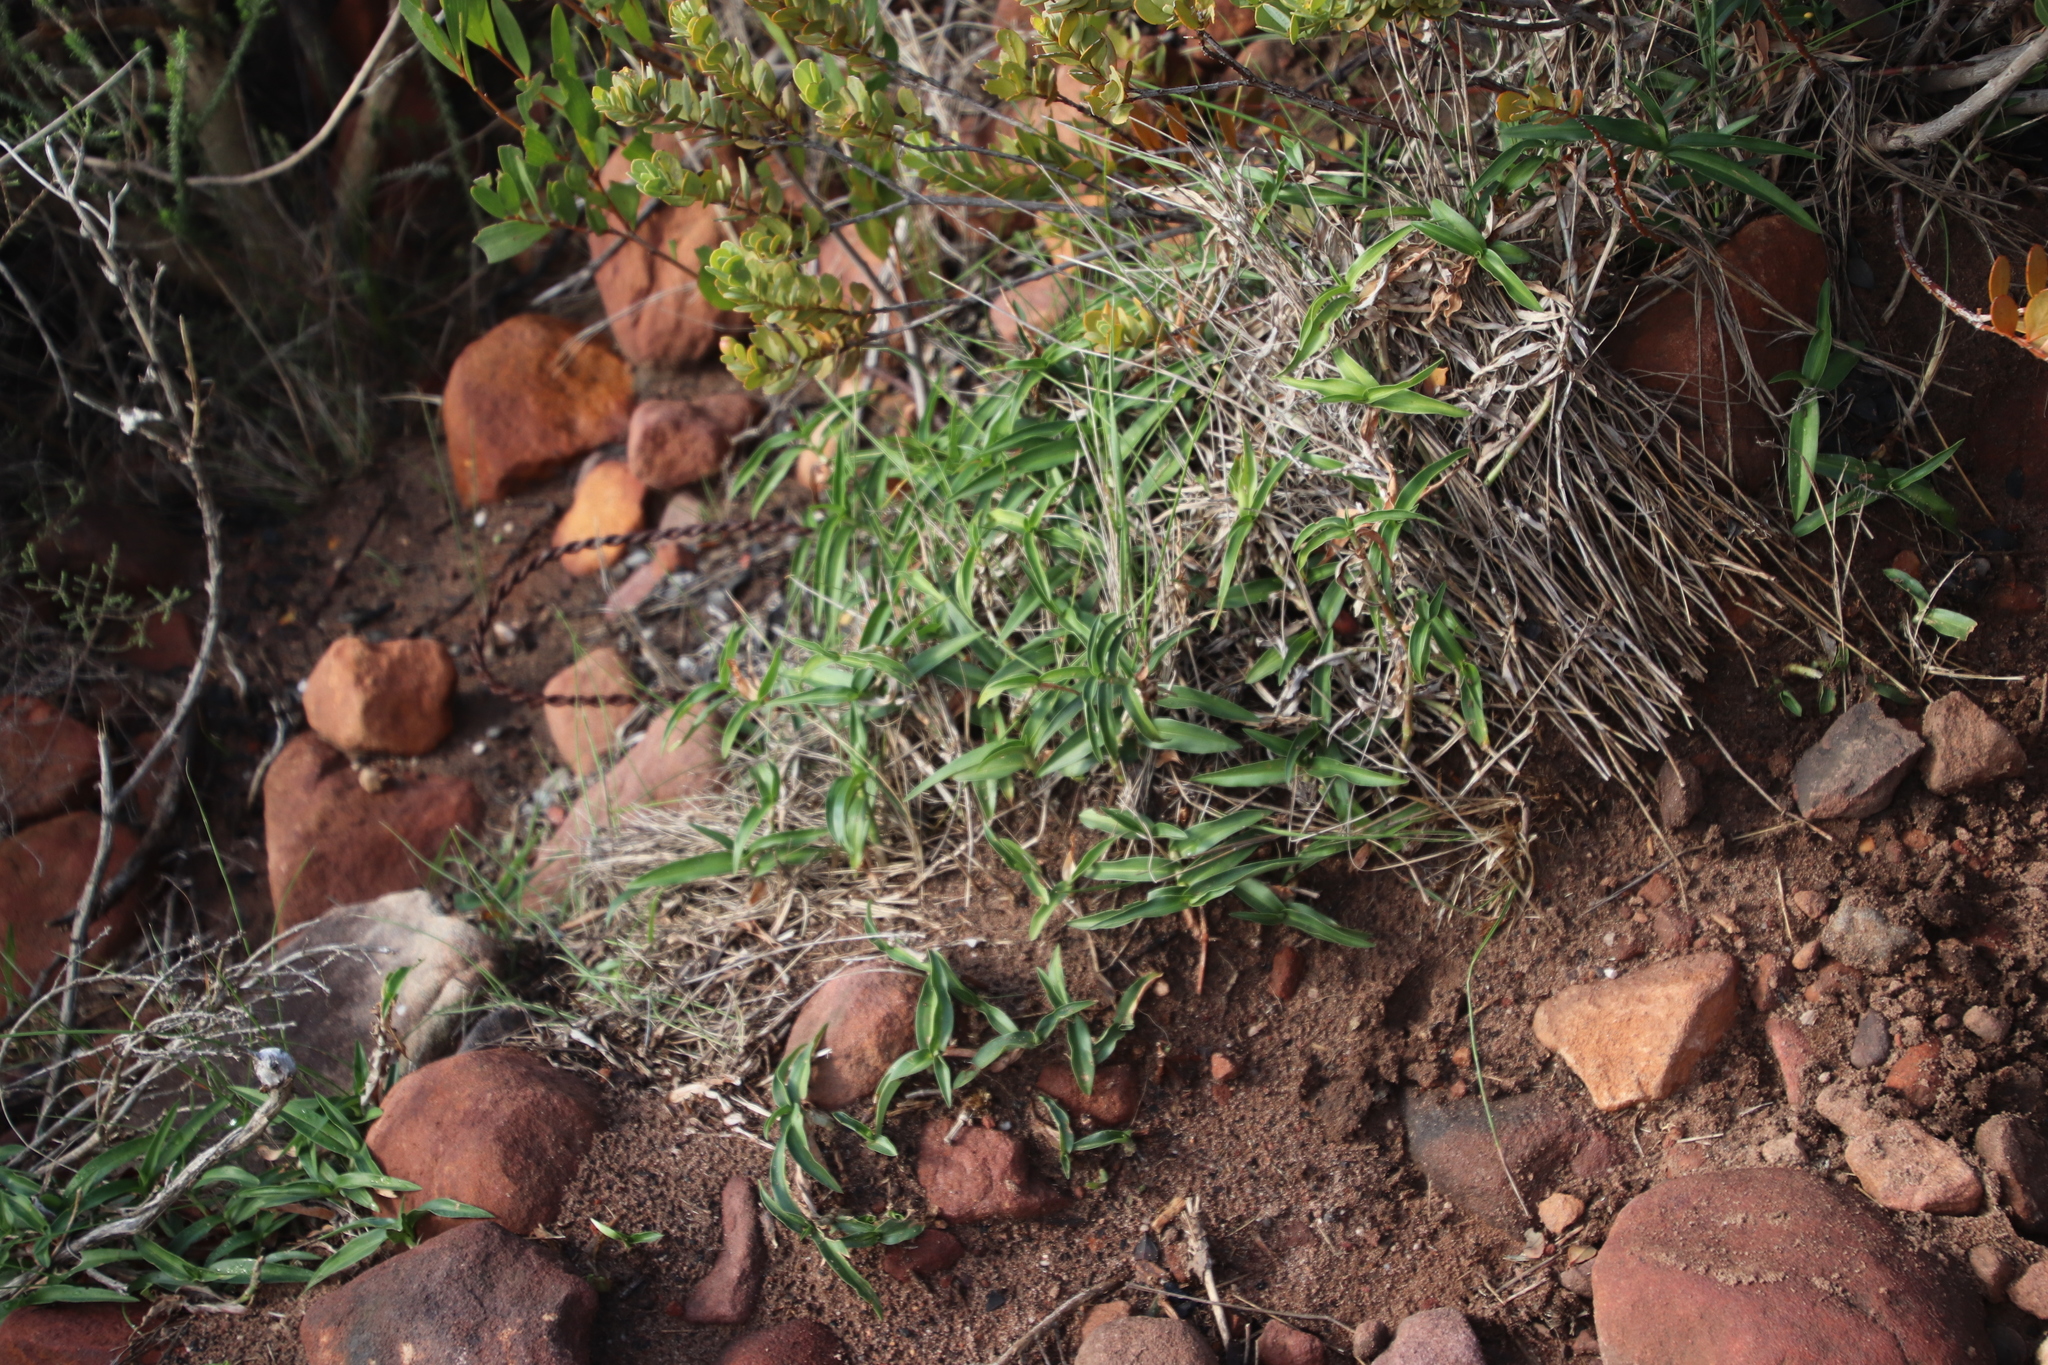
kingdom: Plantae
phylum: Tracheophyta
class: Liliopsida
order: Commelinales
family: Commelinaceae
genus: Commelina
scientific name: Commelina africana
